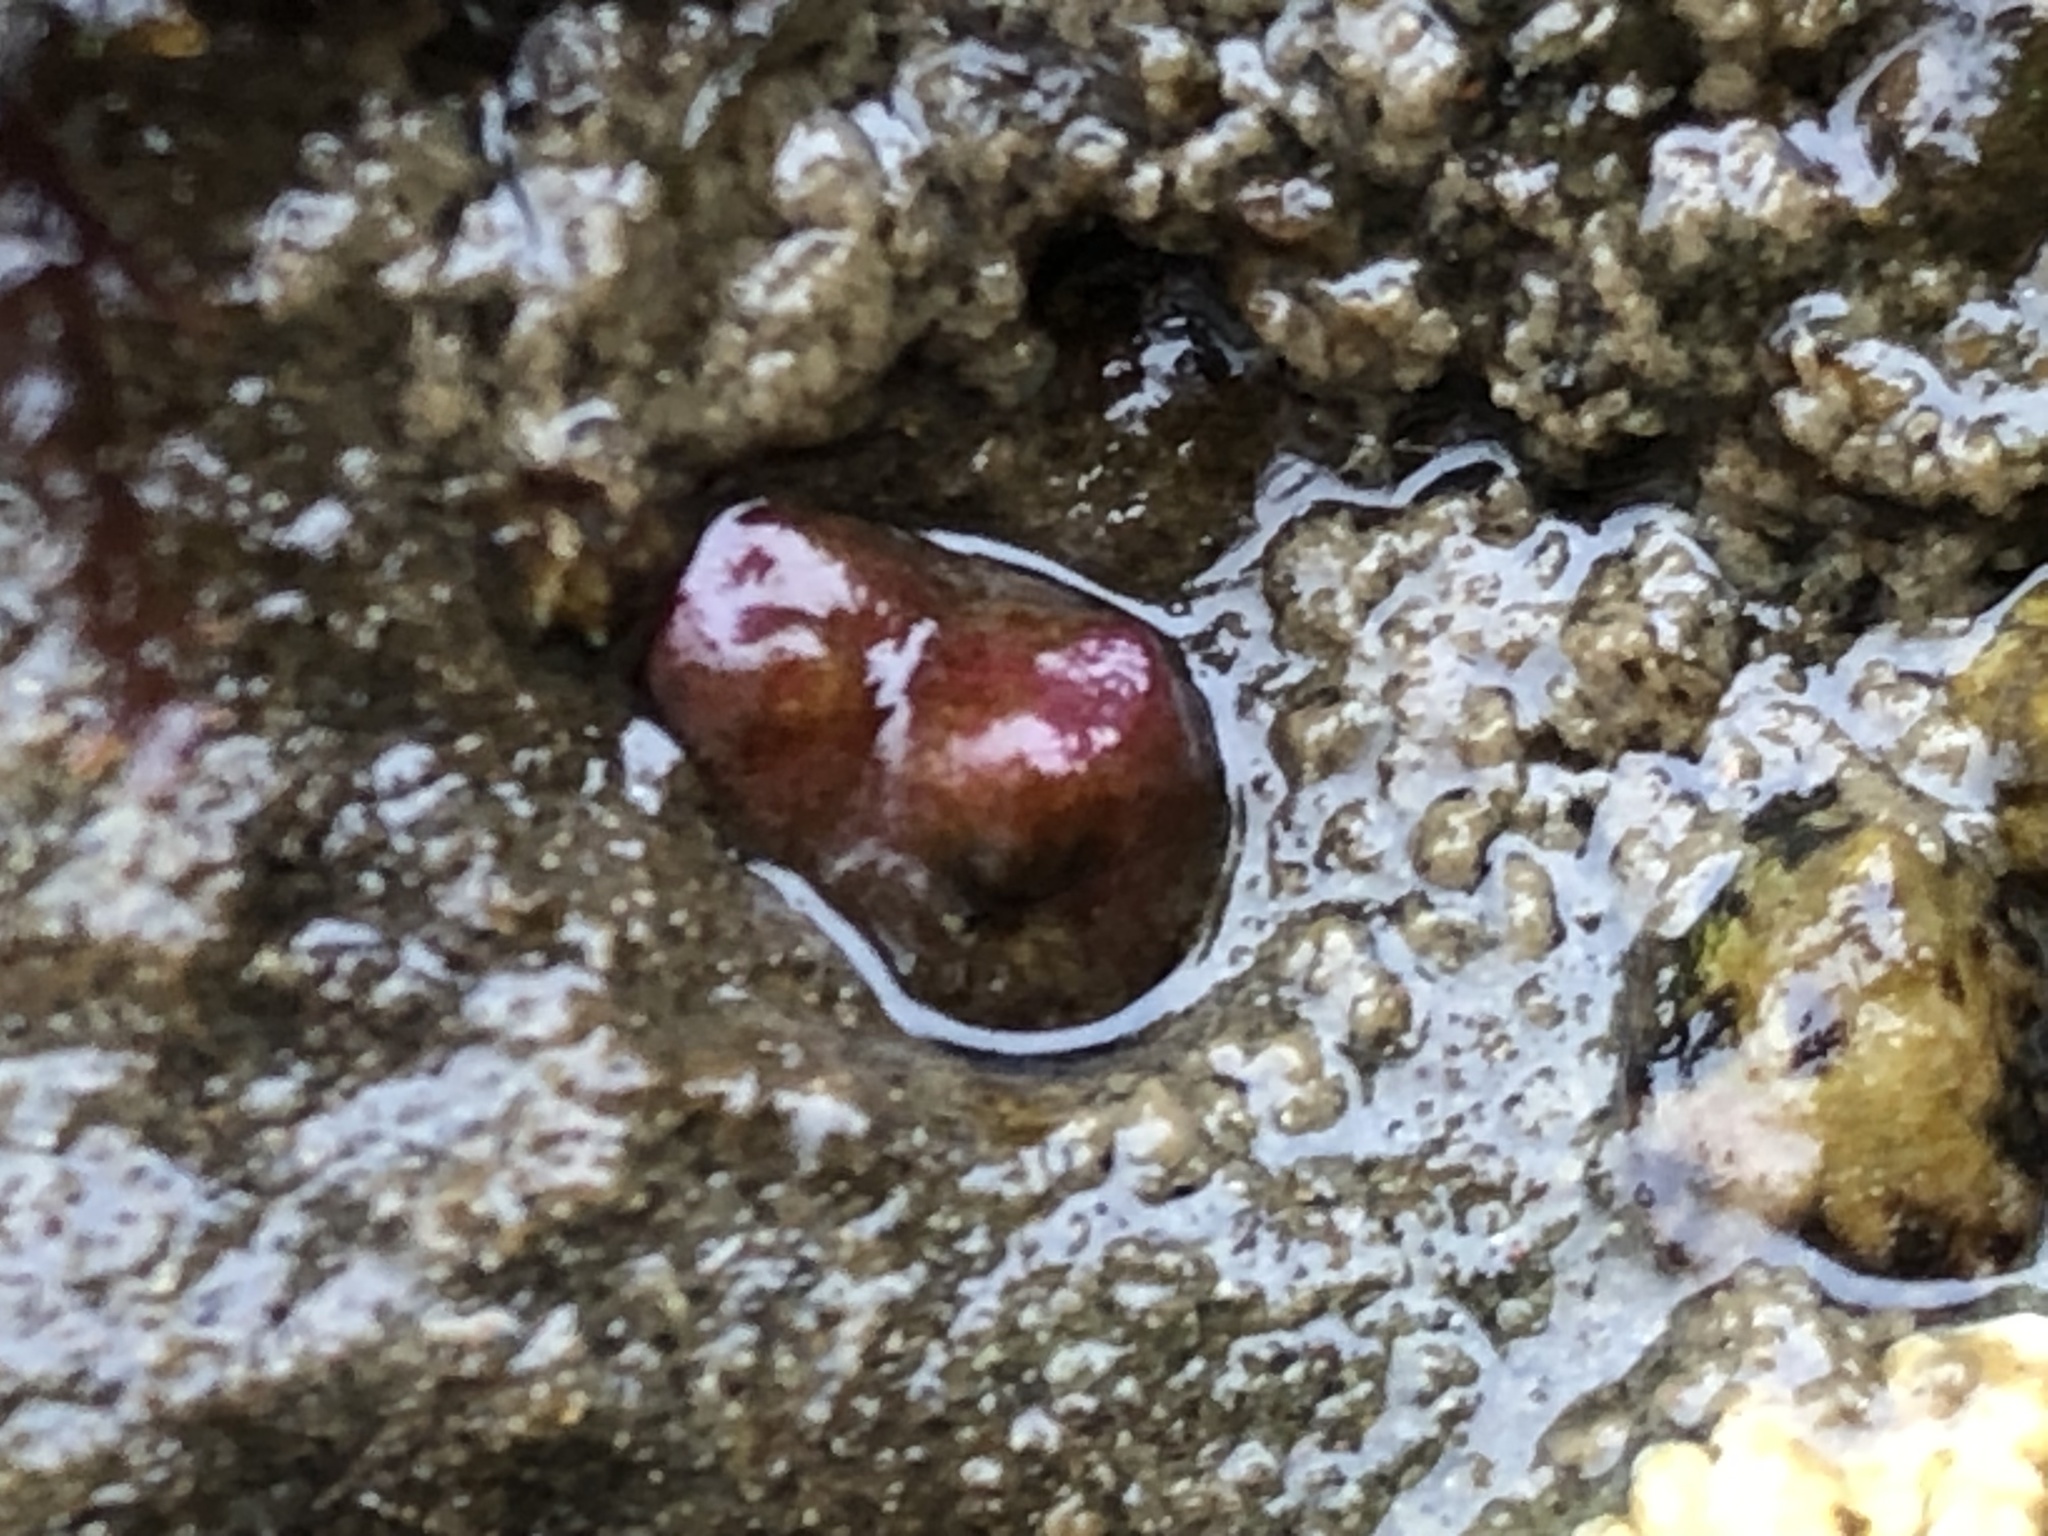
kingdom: Animalia
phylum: Mollusca
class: Bivalvia
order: Adapedonta
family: Hiatellidae
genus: Hiatella
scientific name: Hiatella arctica
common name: Arctic hiatella
